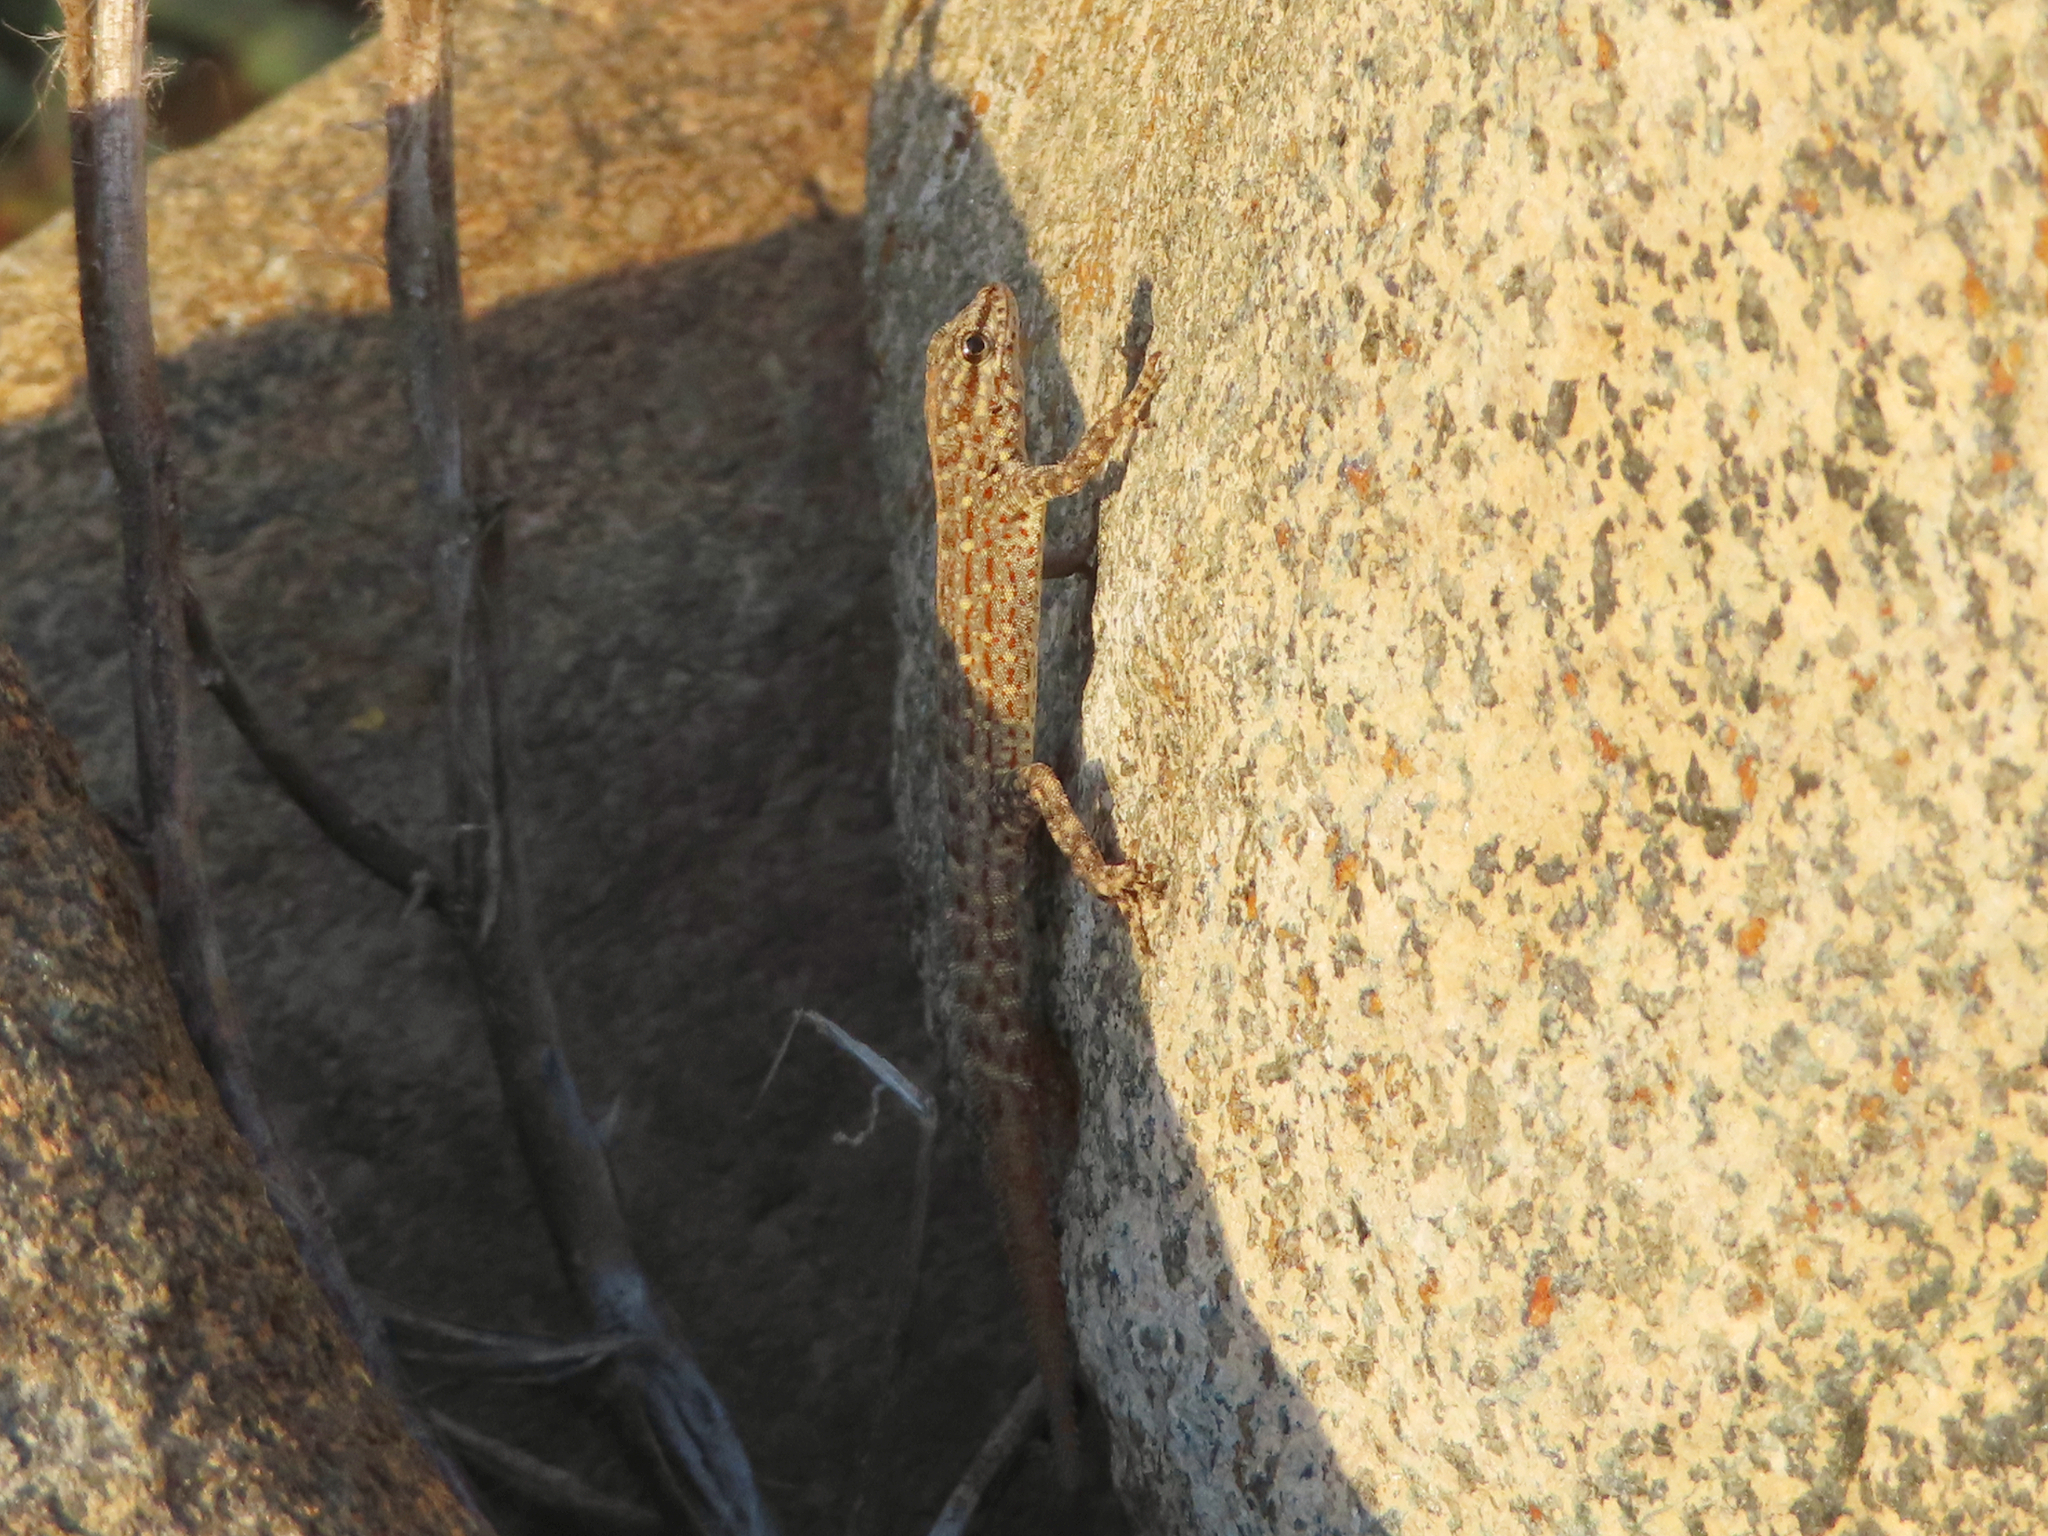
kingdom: Animalia
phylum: Chordata
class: Squamata
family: Sphaerodactylidae
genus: Pristurus
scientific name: Pristurus rupestris
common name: Blanford’s semaphore gecko
